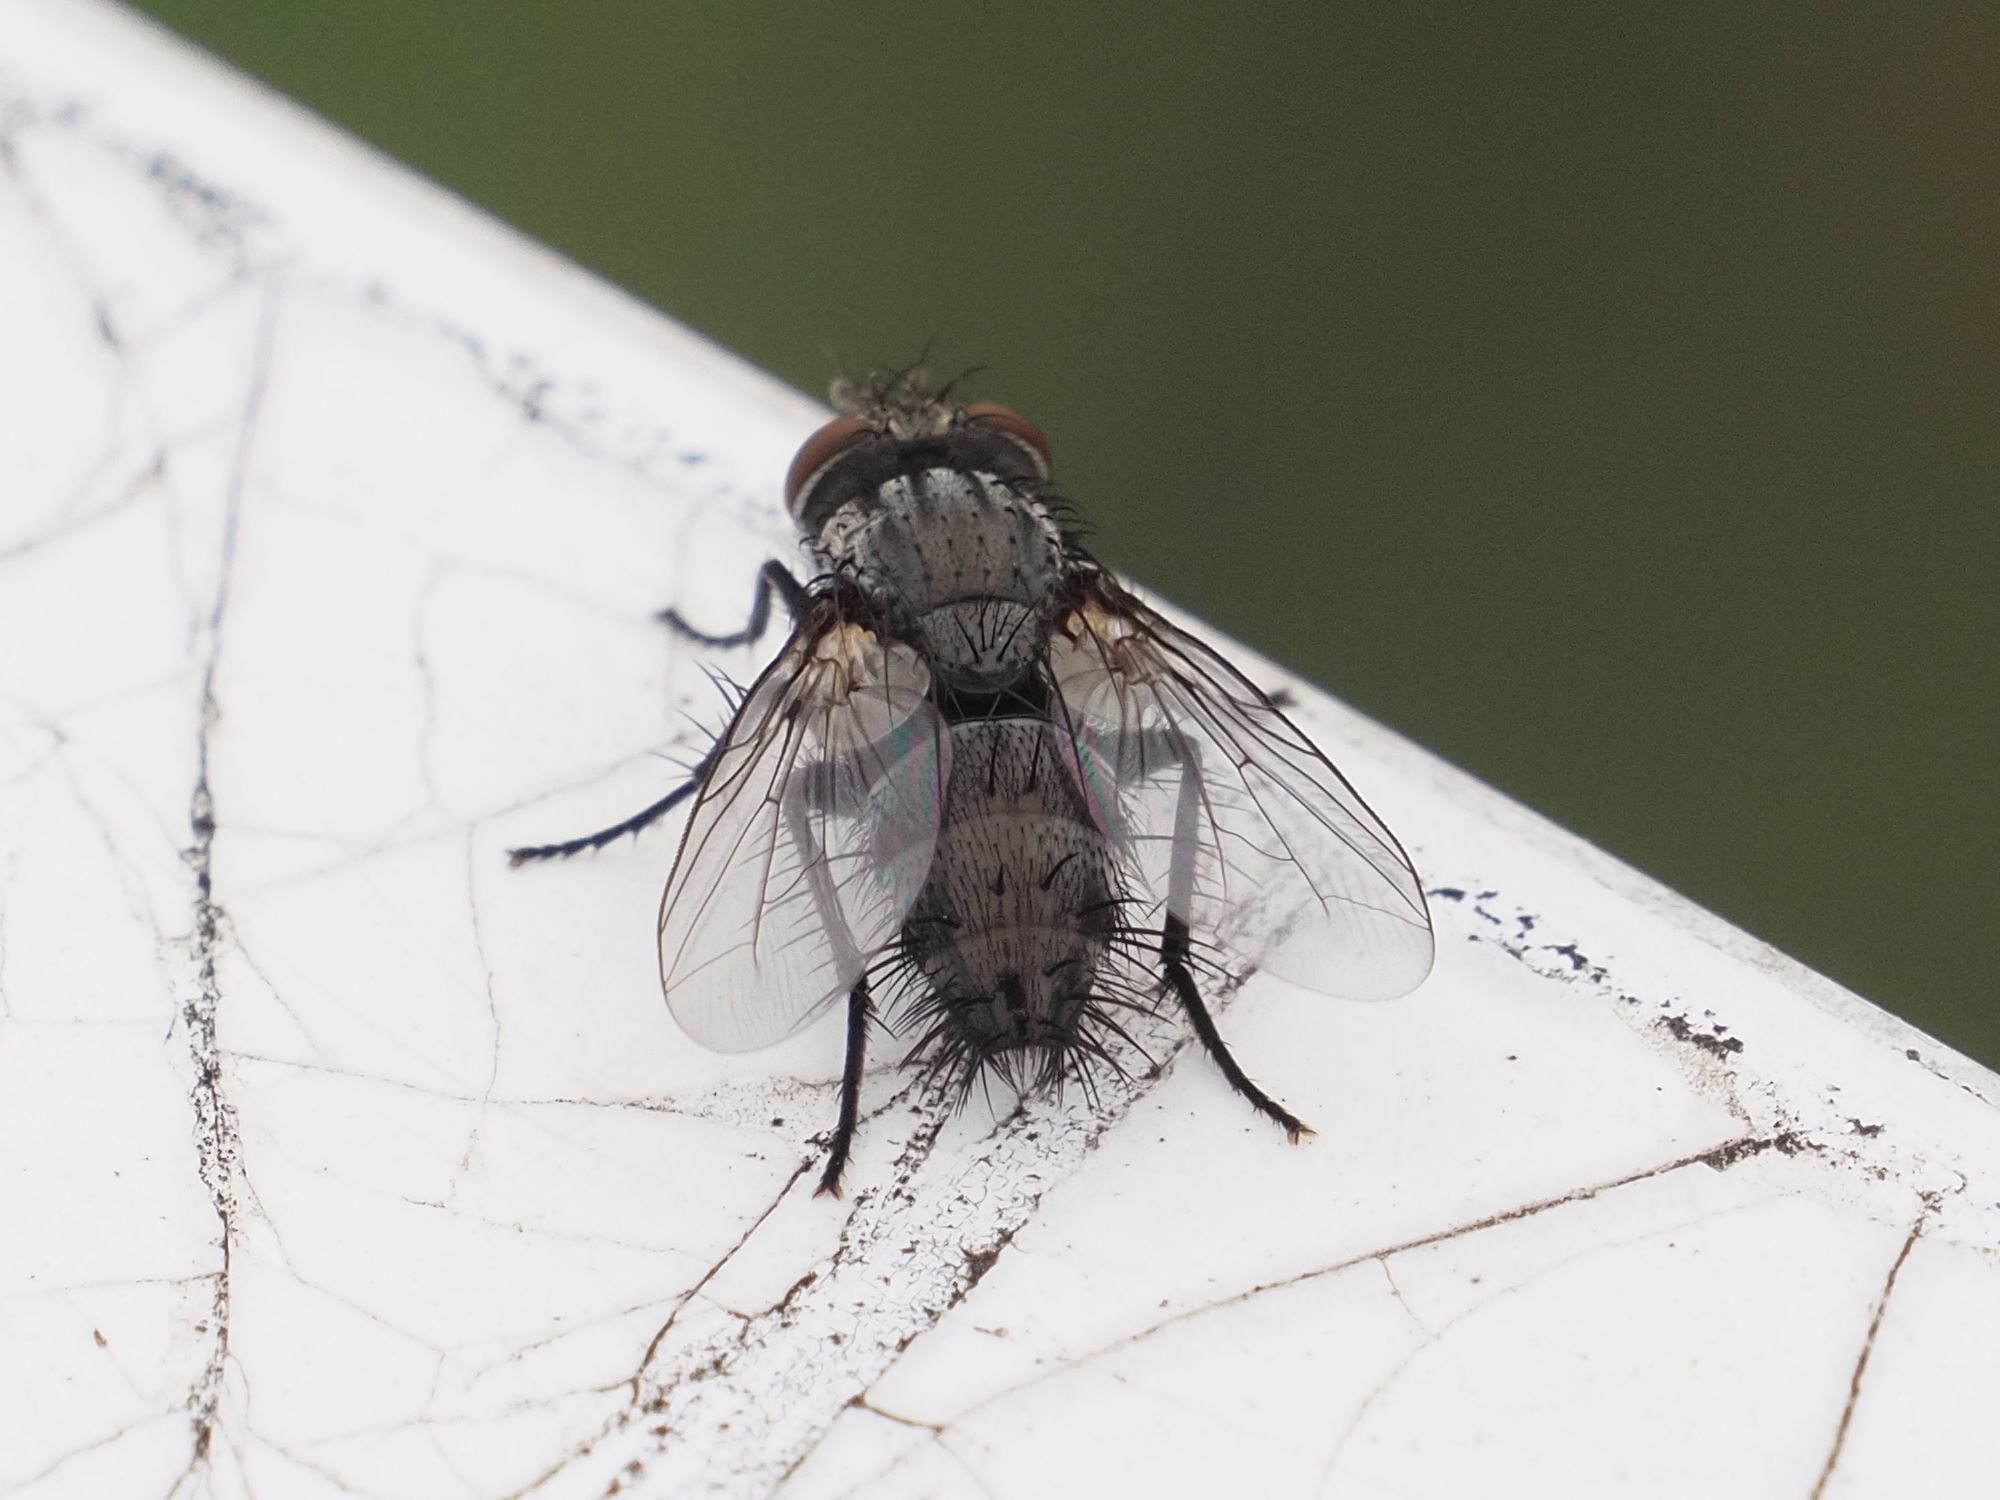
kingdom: Animalia
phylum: Arthropoda
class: Insecta
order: Diptera
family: Tachinidae
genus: Voria
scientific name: Voria ruralis
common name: Parasitic fly
